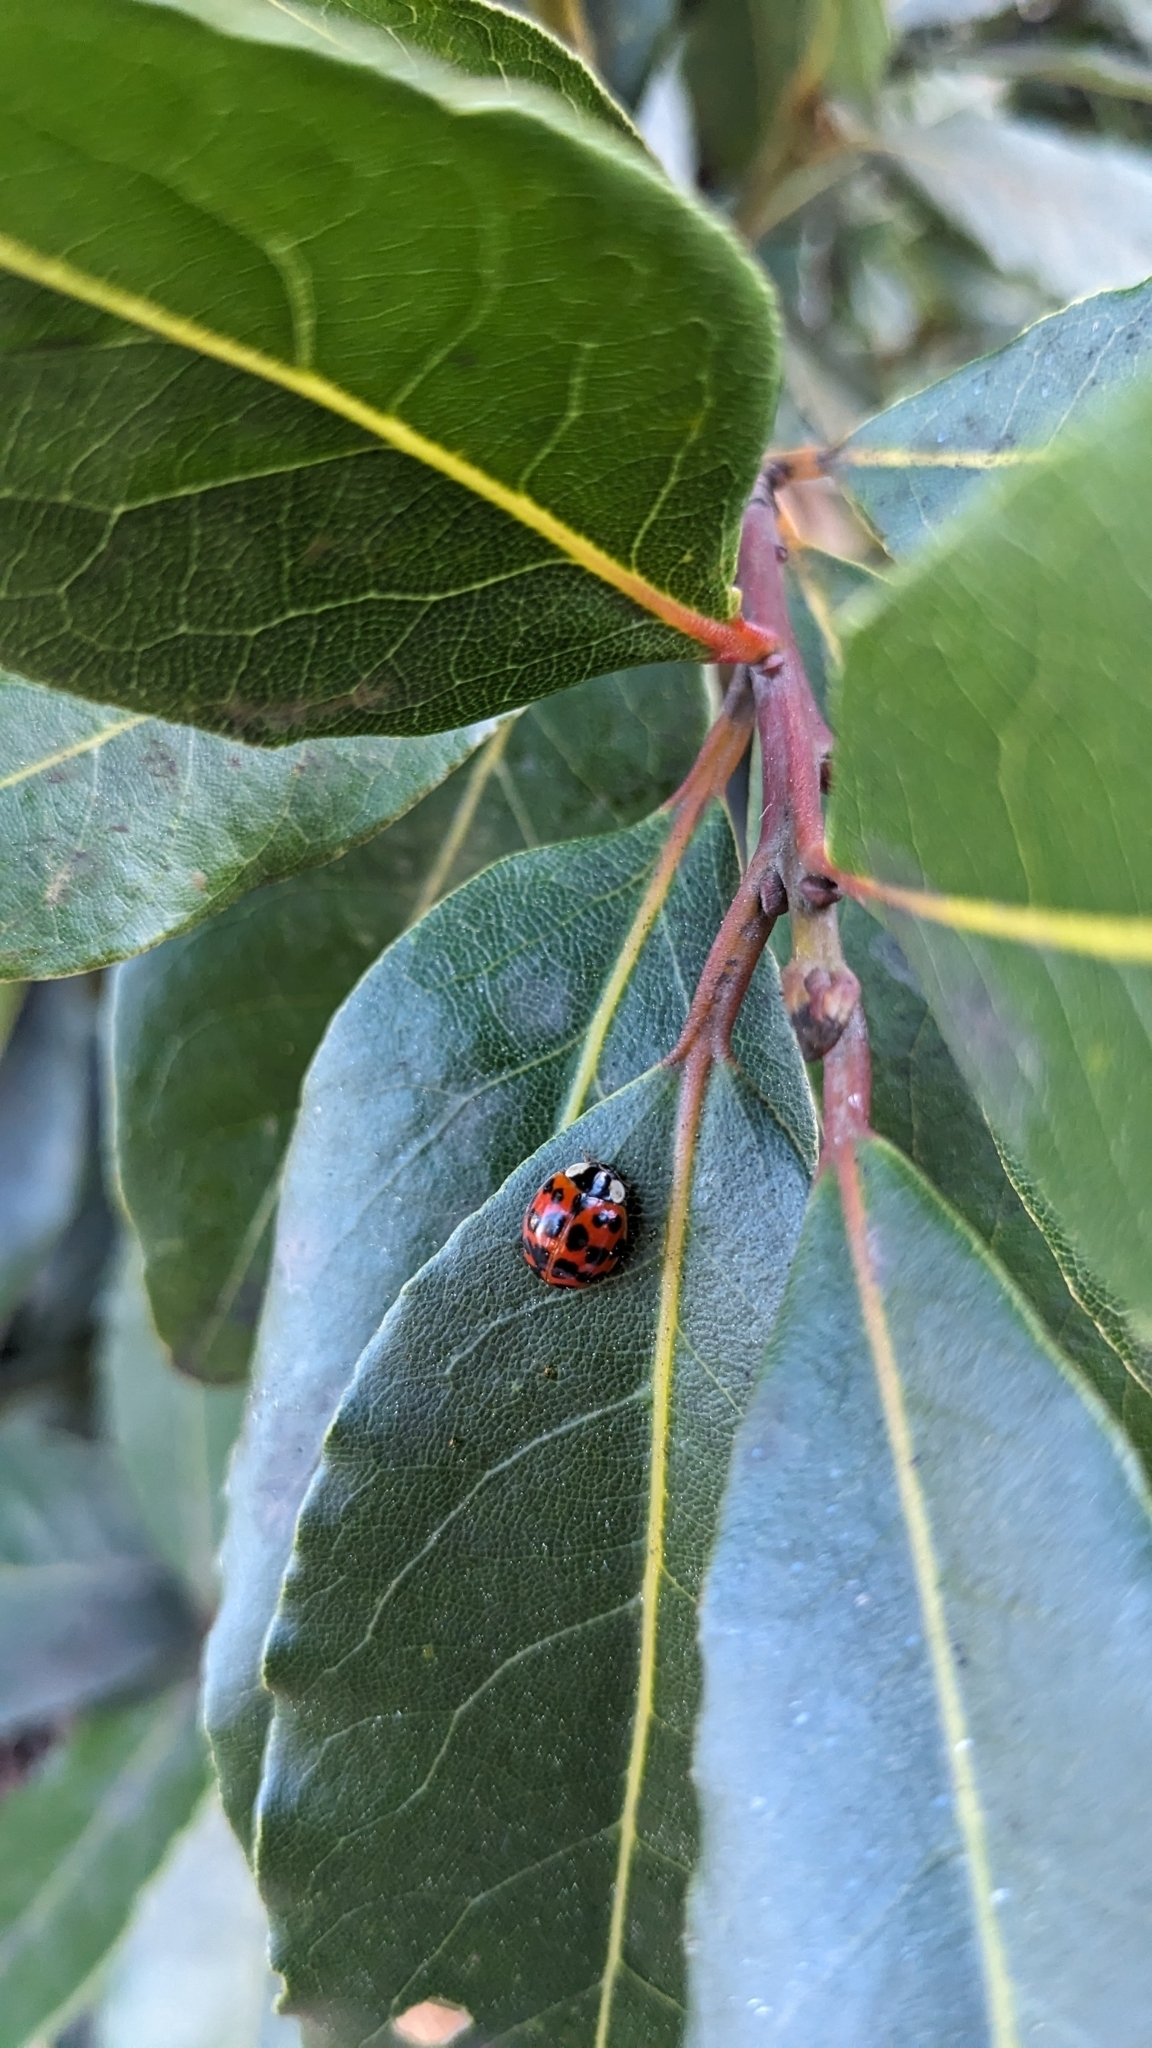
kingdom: Animalia
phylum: Arthropoda
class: Insecta
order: Coleoptera
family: Coccinellidae
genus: Harmonia
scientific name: Harmonia axyridis
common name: Harlequin ladybird
